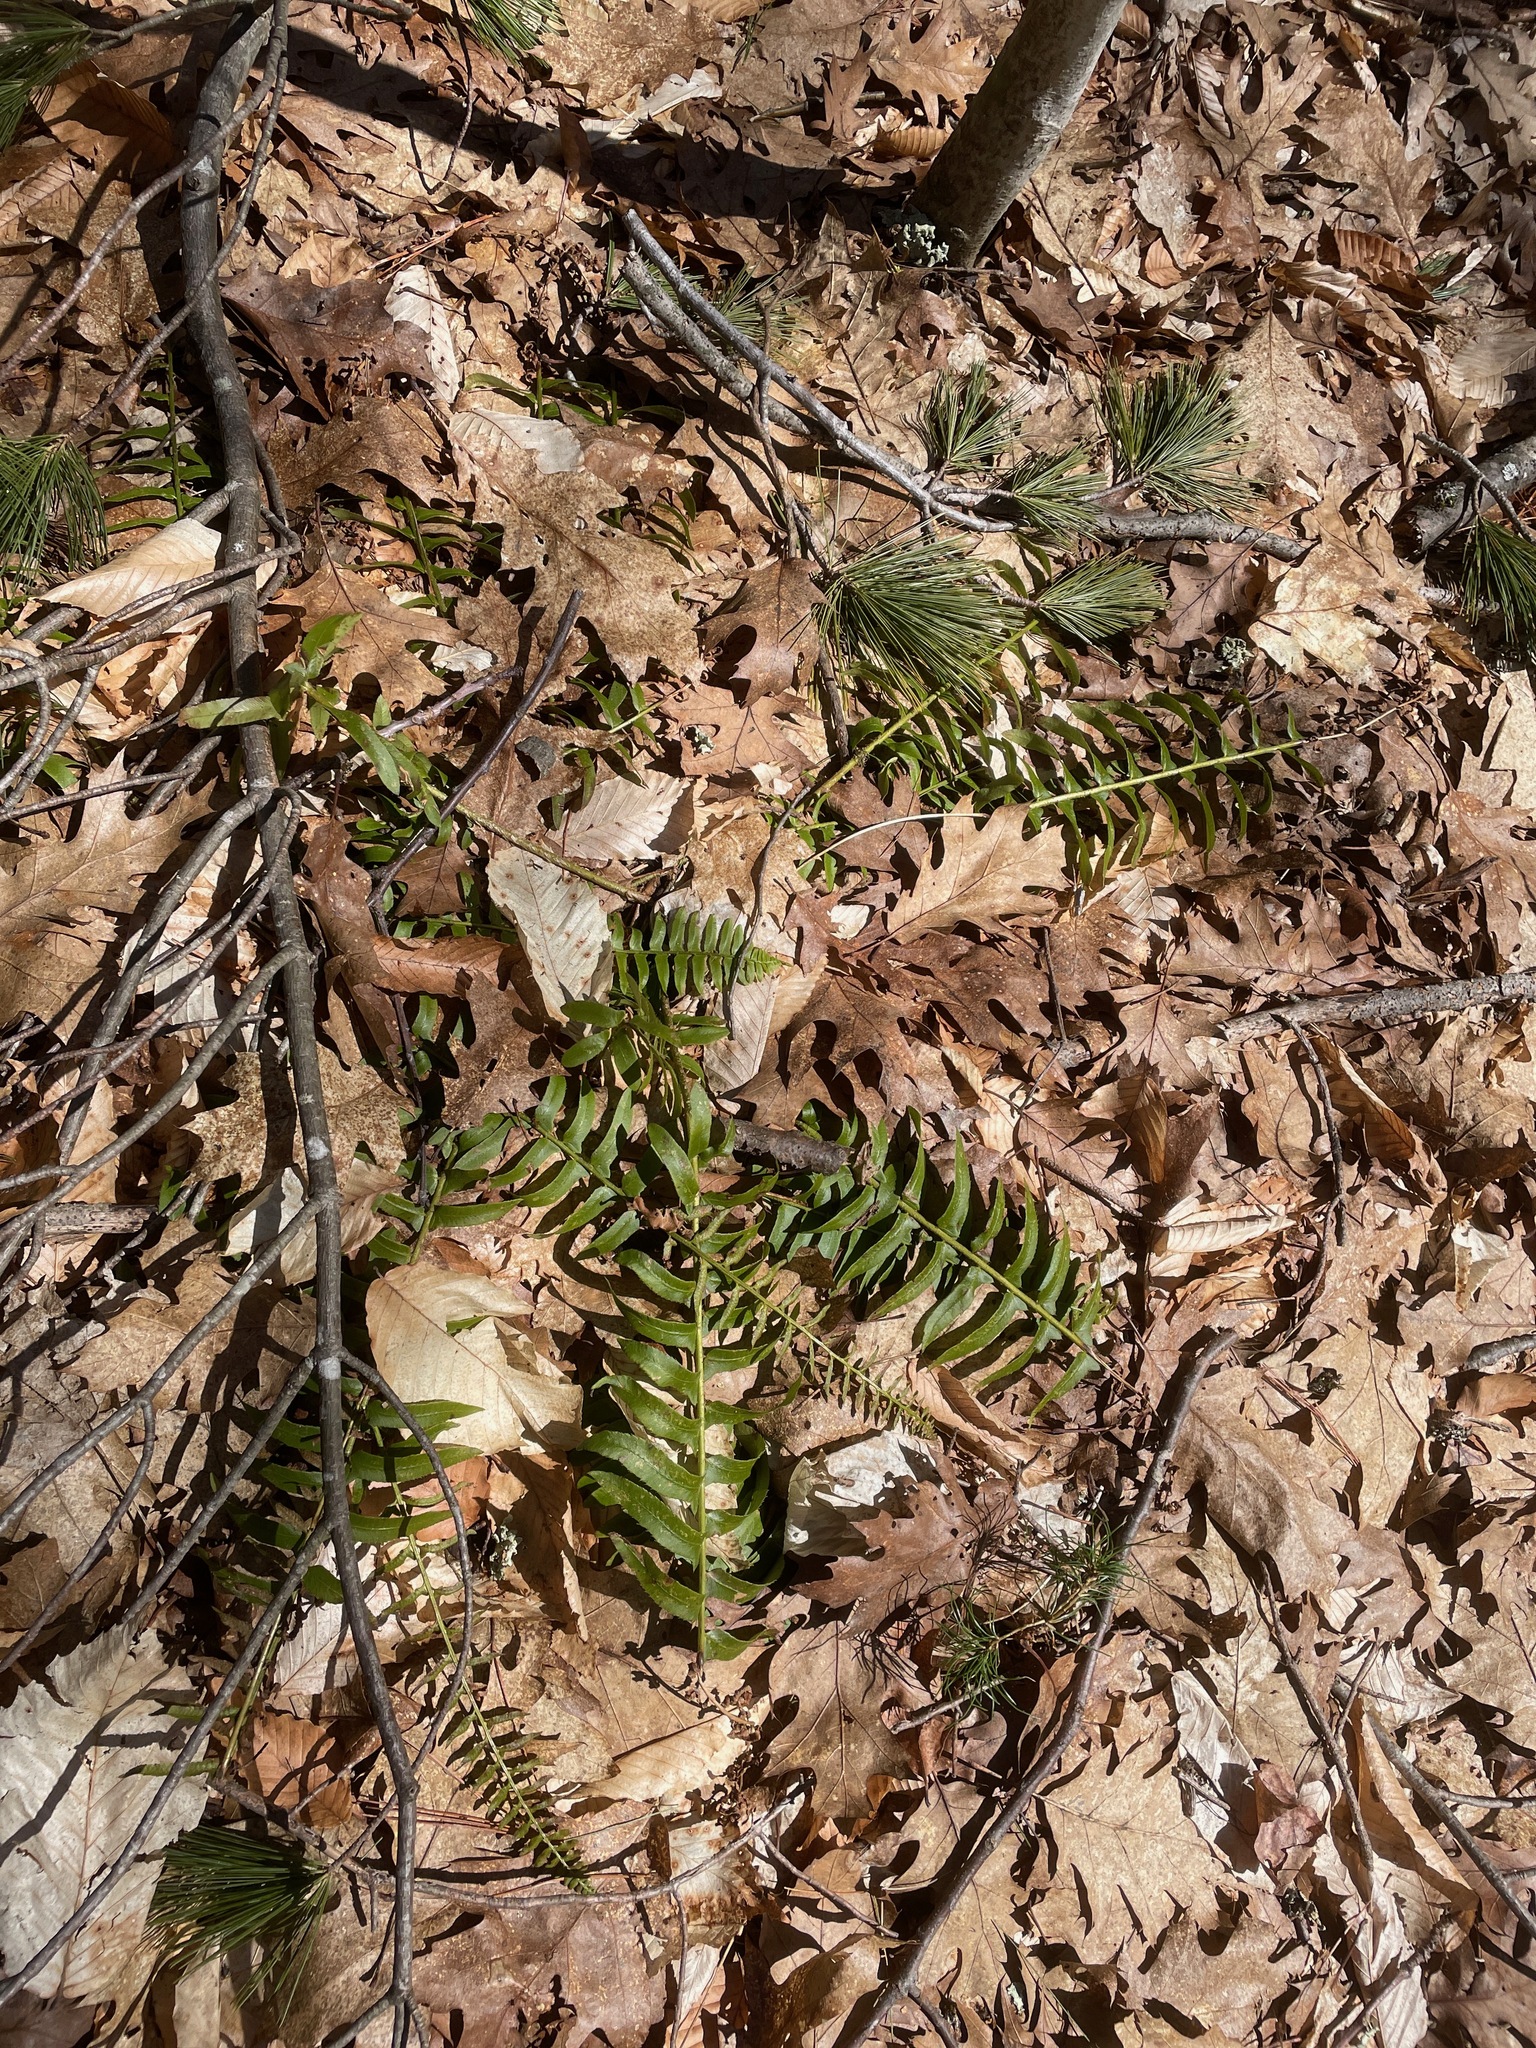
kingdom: Plantae
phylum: Tracheophyta
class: Polypodiopsida
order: Polypodiales
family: Dryopteridaceae
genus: Polystichum
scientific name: Polystichum acrostichoides
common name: Christmas fern
